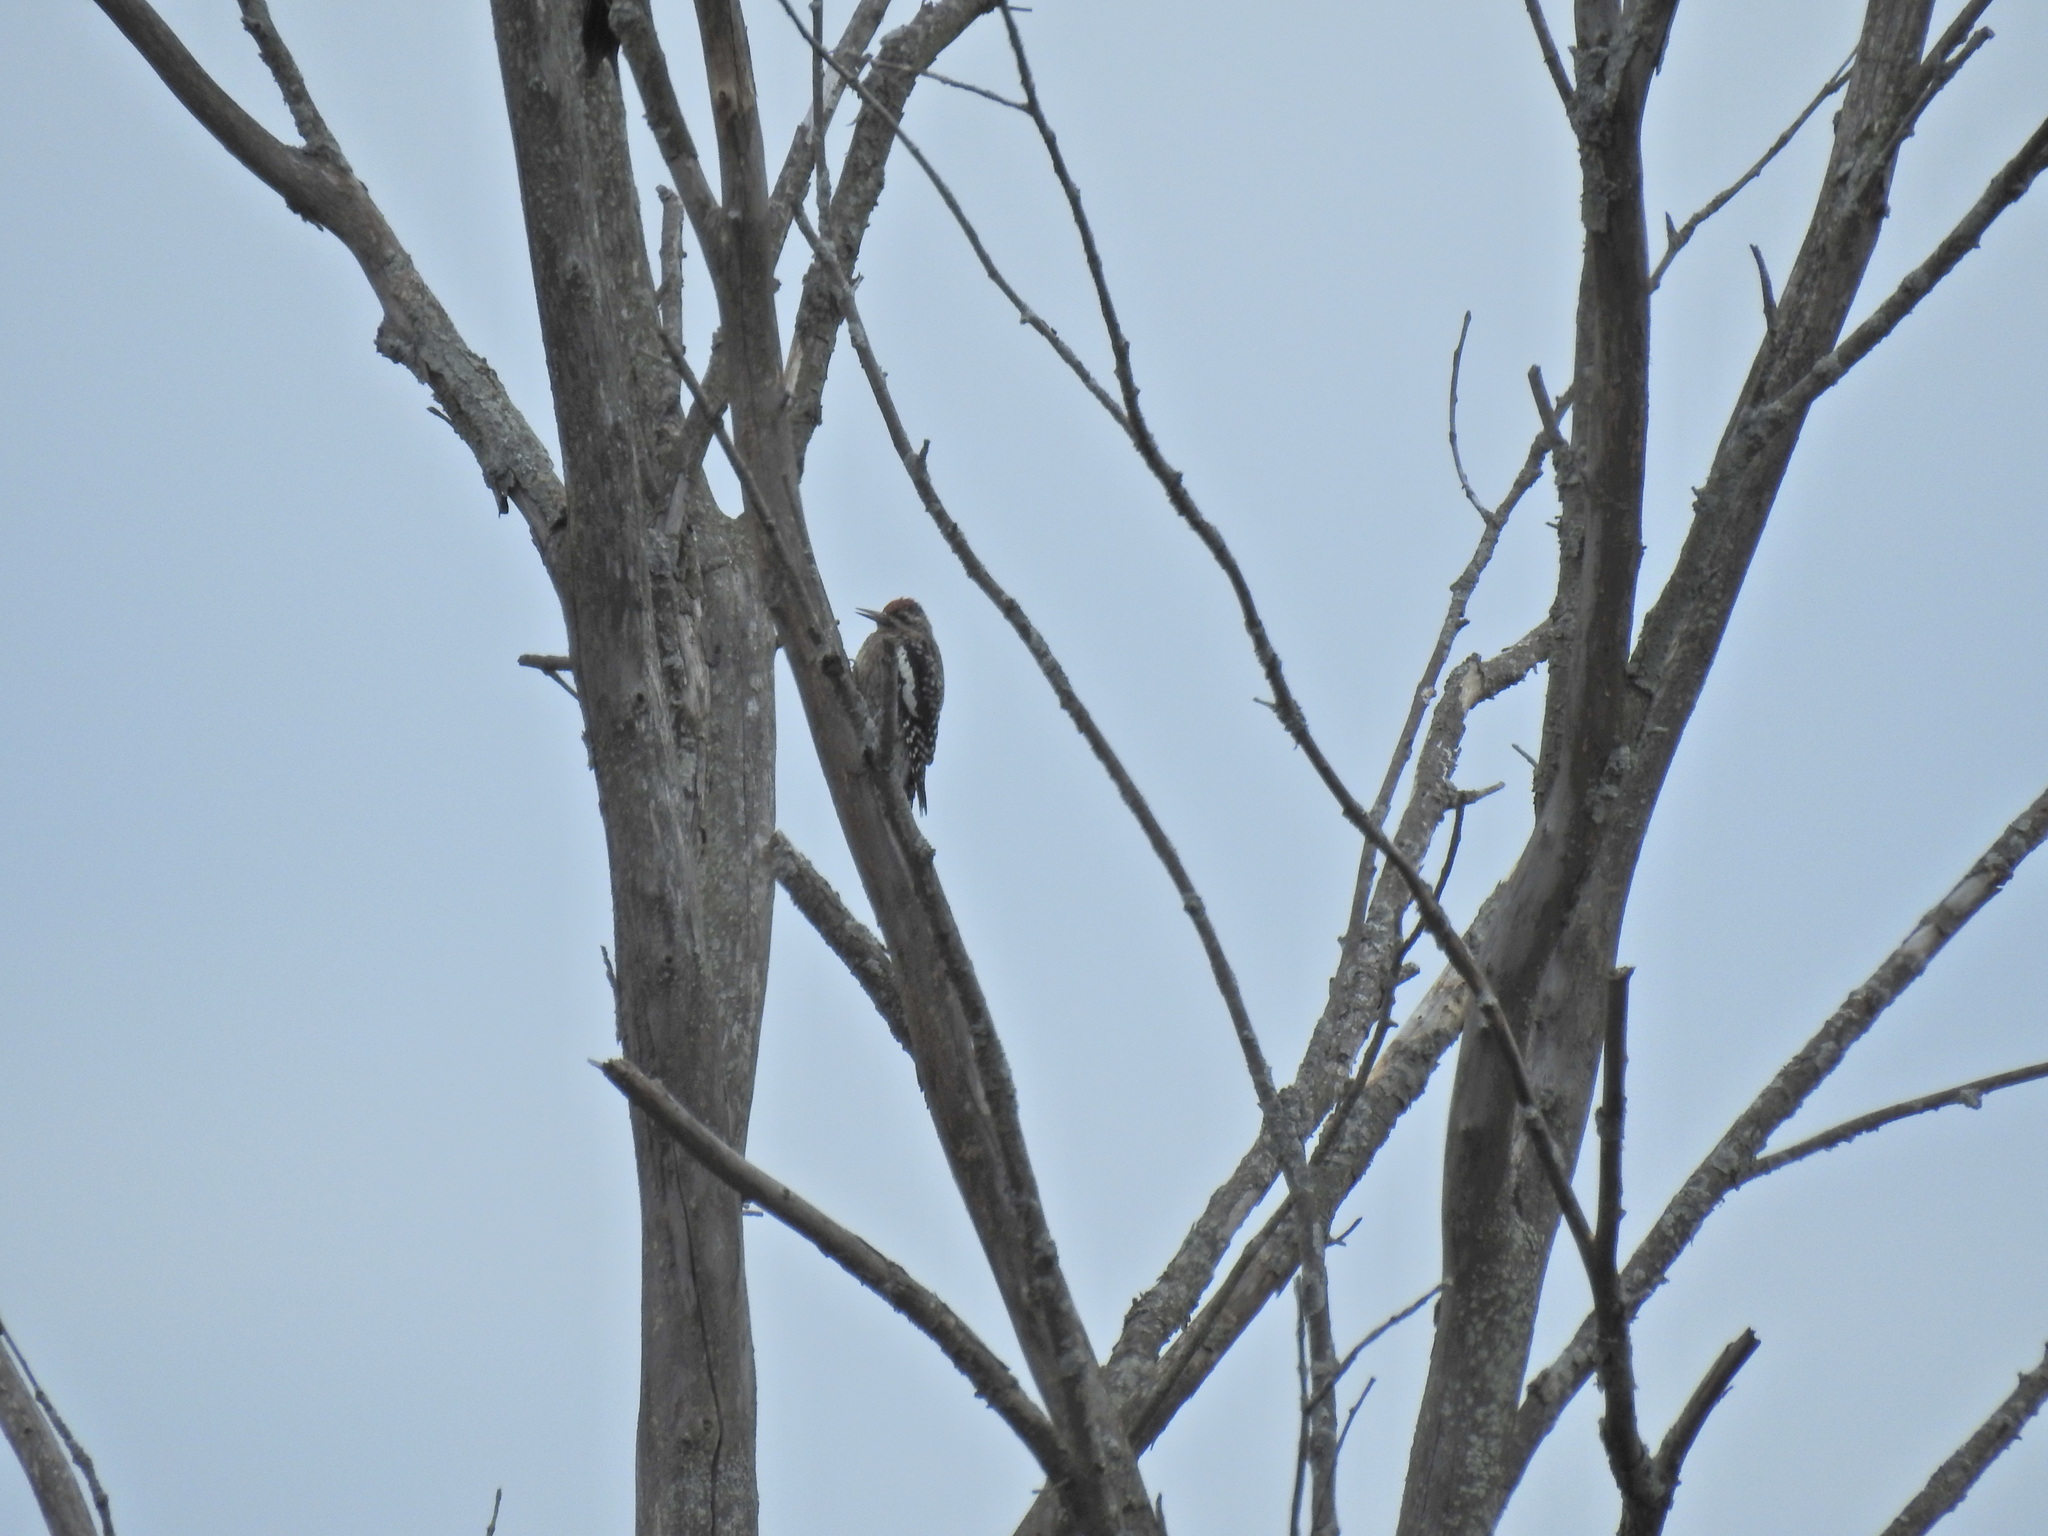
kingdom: Animalia
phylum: Chordata
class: Aves
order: Piciformes
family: Picidae
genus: Sphyrapicus
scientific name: Sphyrapicus varius
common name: Yellow-bellied sapsucker
